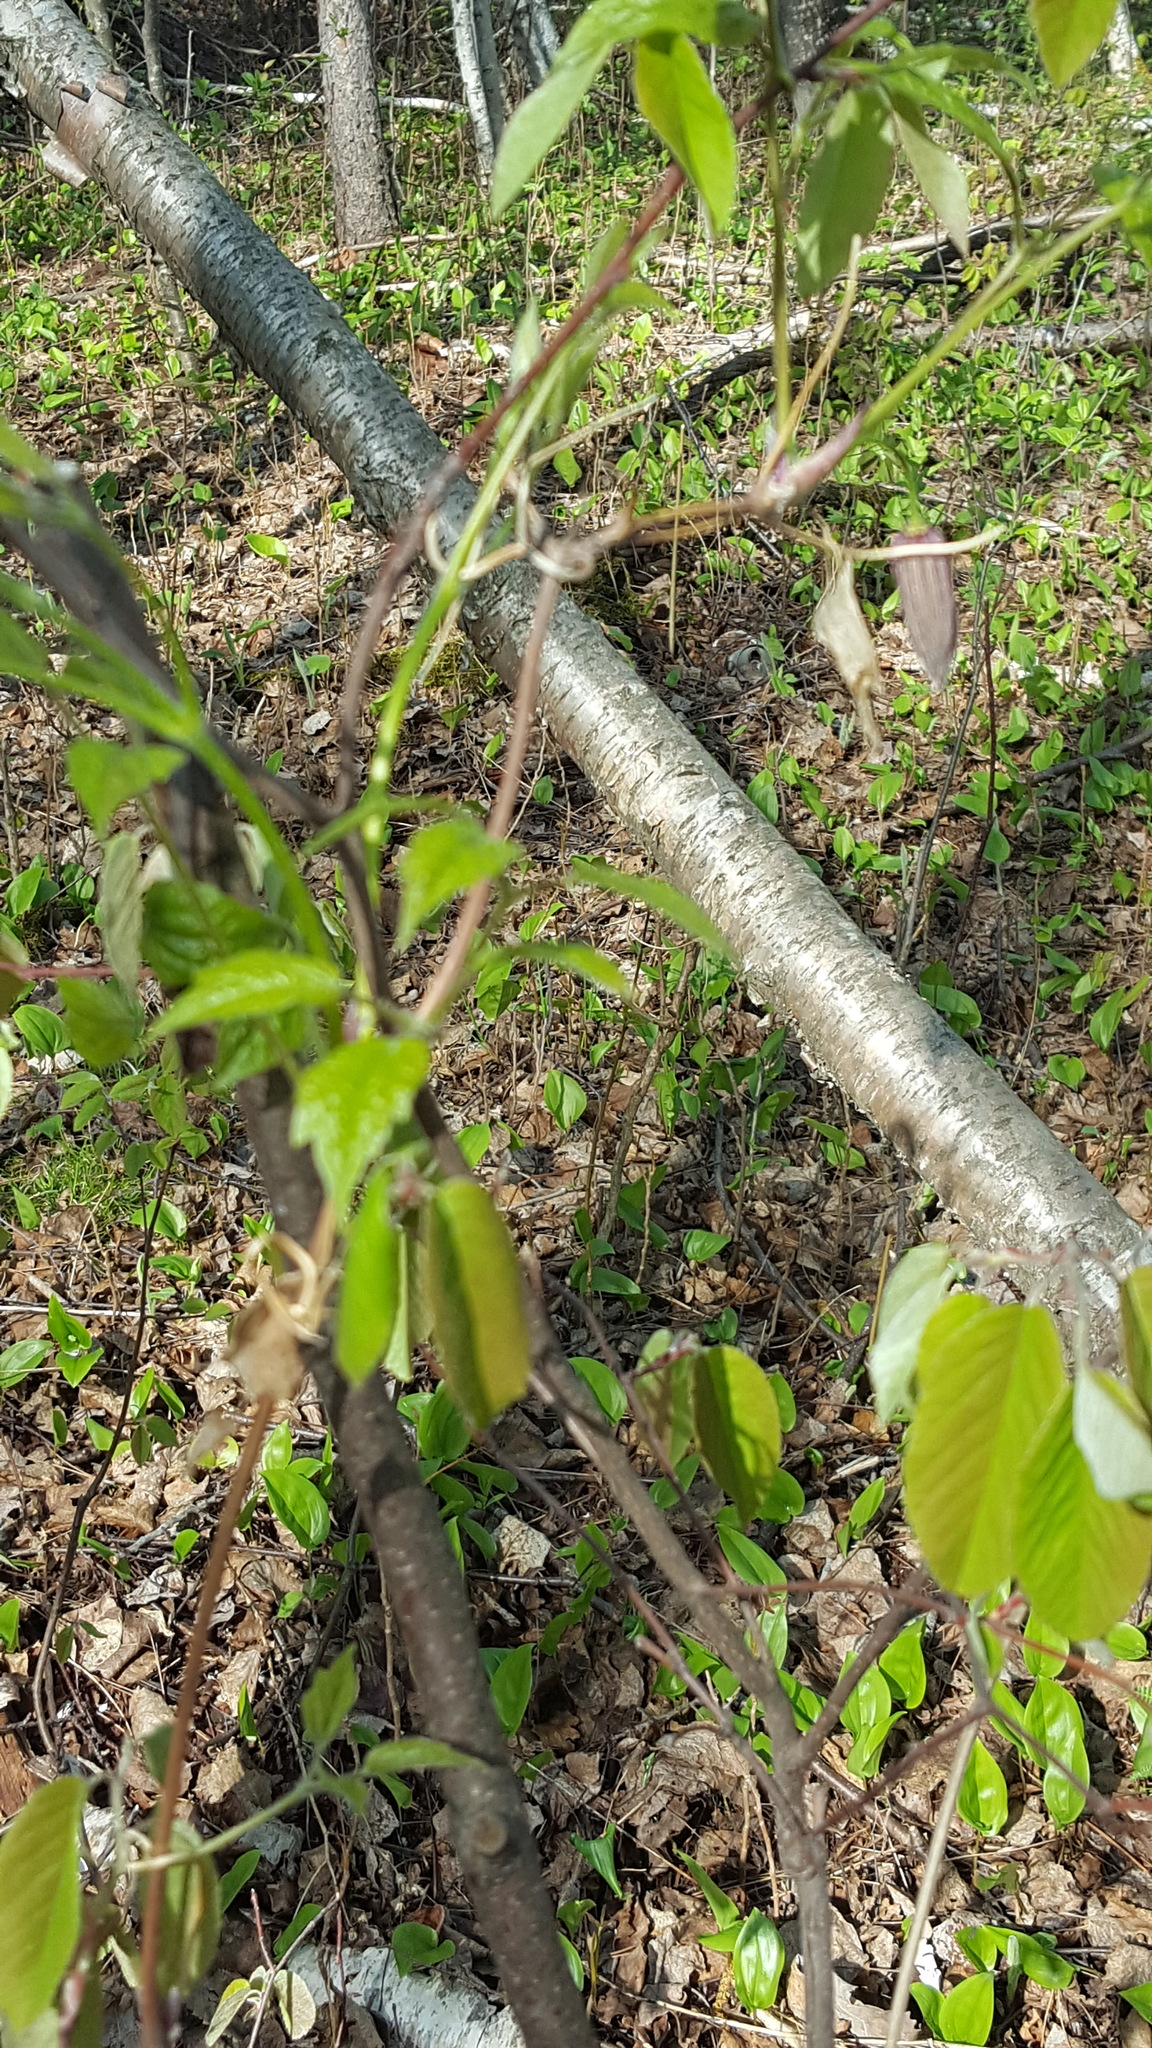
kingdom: Plantae
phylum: Tracheophyta
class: Magnoliopsida
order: Ranunculales
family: Ranunculaceae
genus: Clematis
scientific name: Clematis occidentalis
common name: Purple clematis
